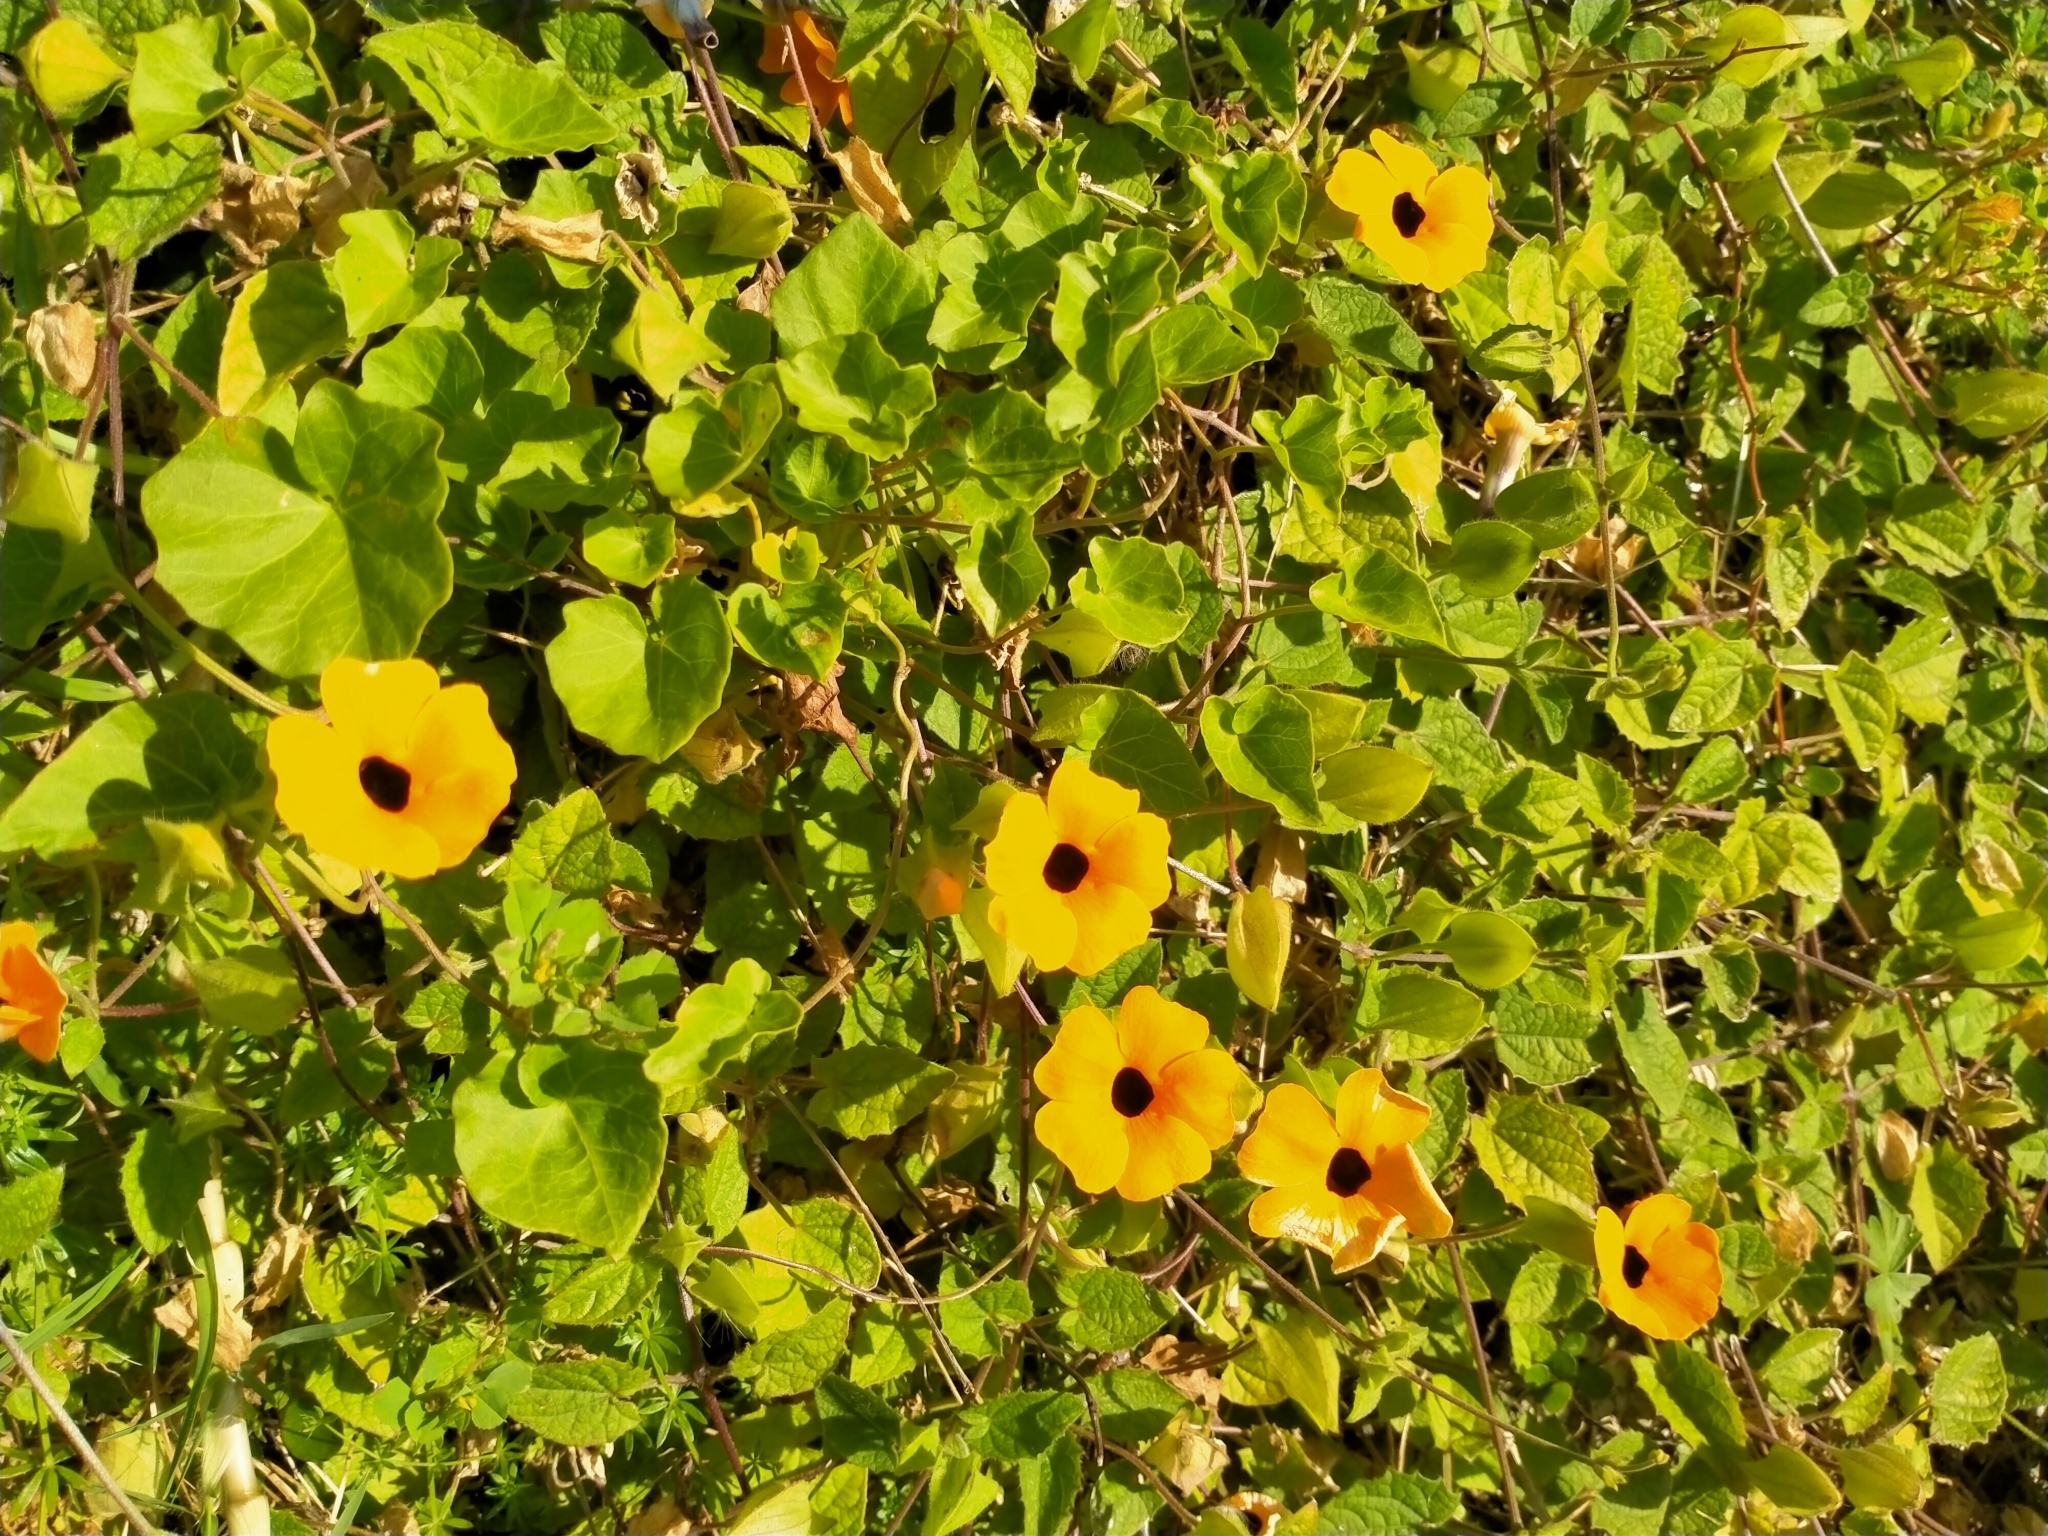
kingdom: Plantae
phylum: Tracheophyta
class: Magnoliopsida
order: Lamiales
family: Acanthaceae
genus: Thunbergia
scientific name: Thunbergia alata
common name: Blackeyed susan vine
